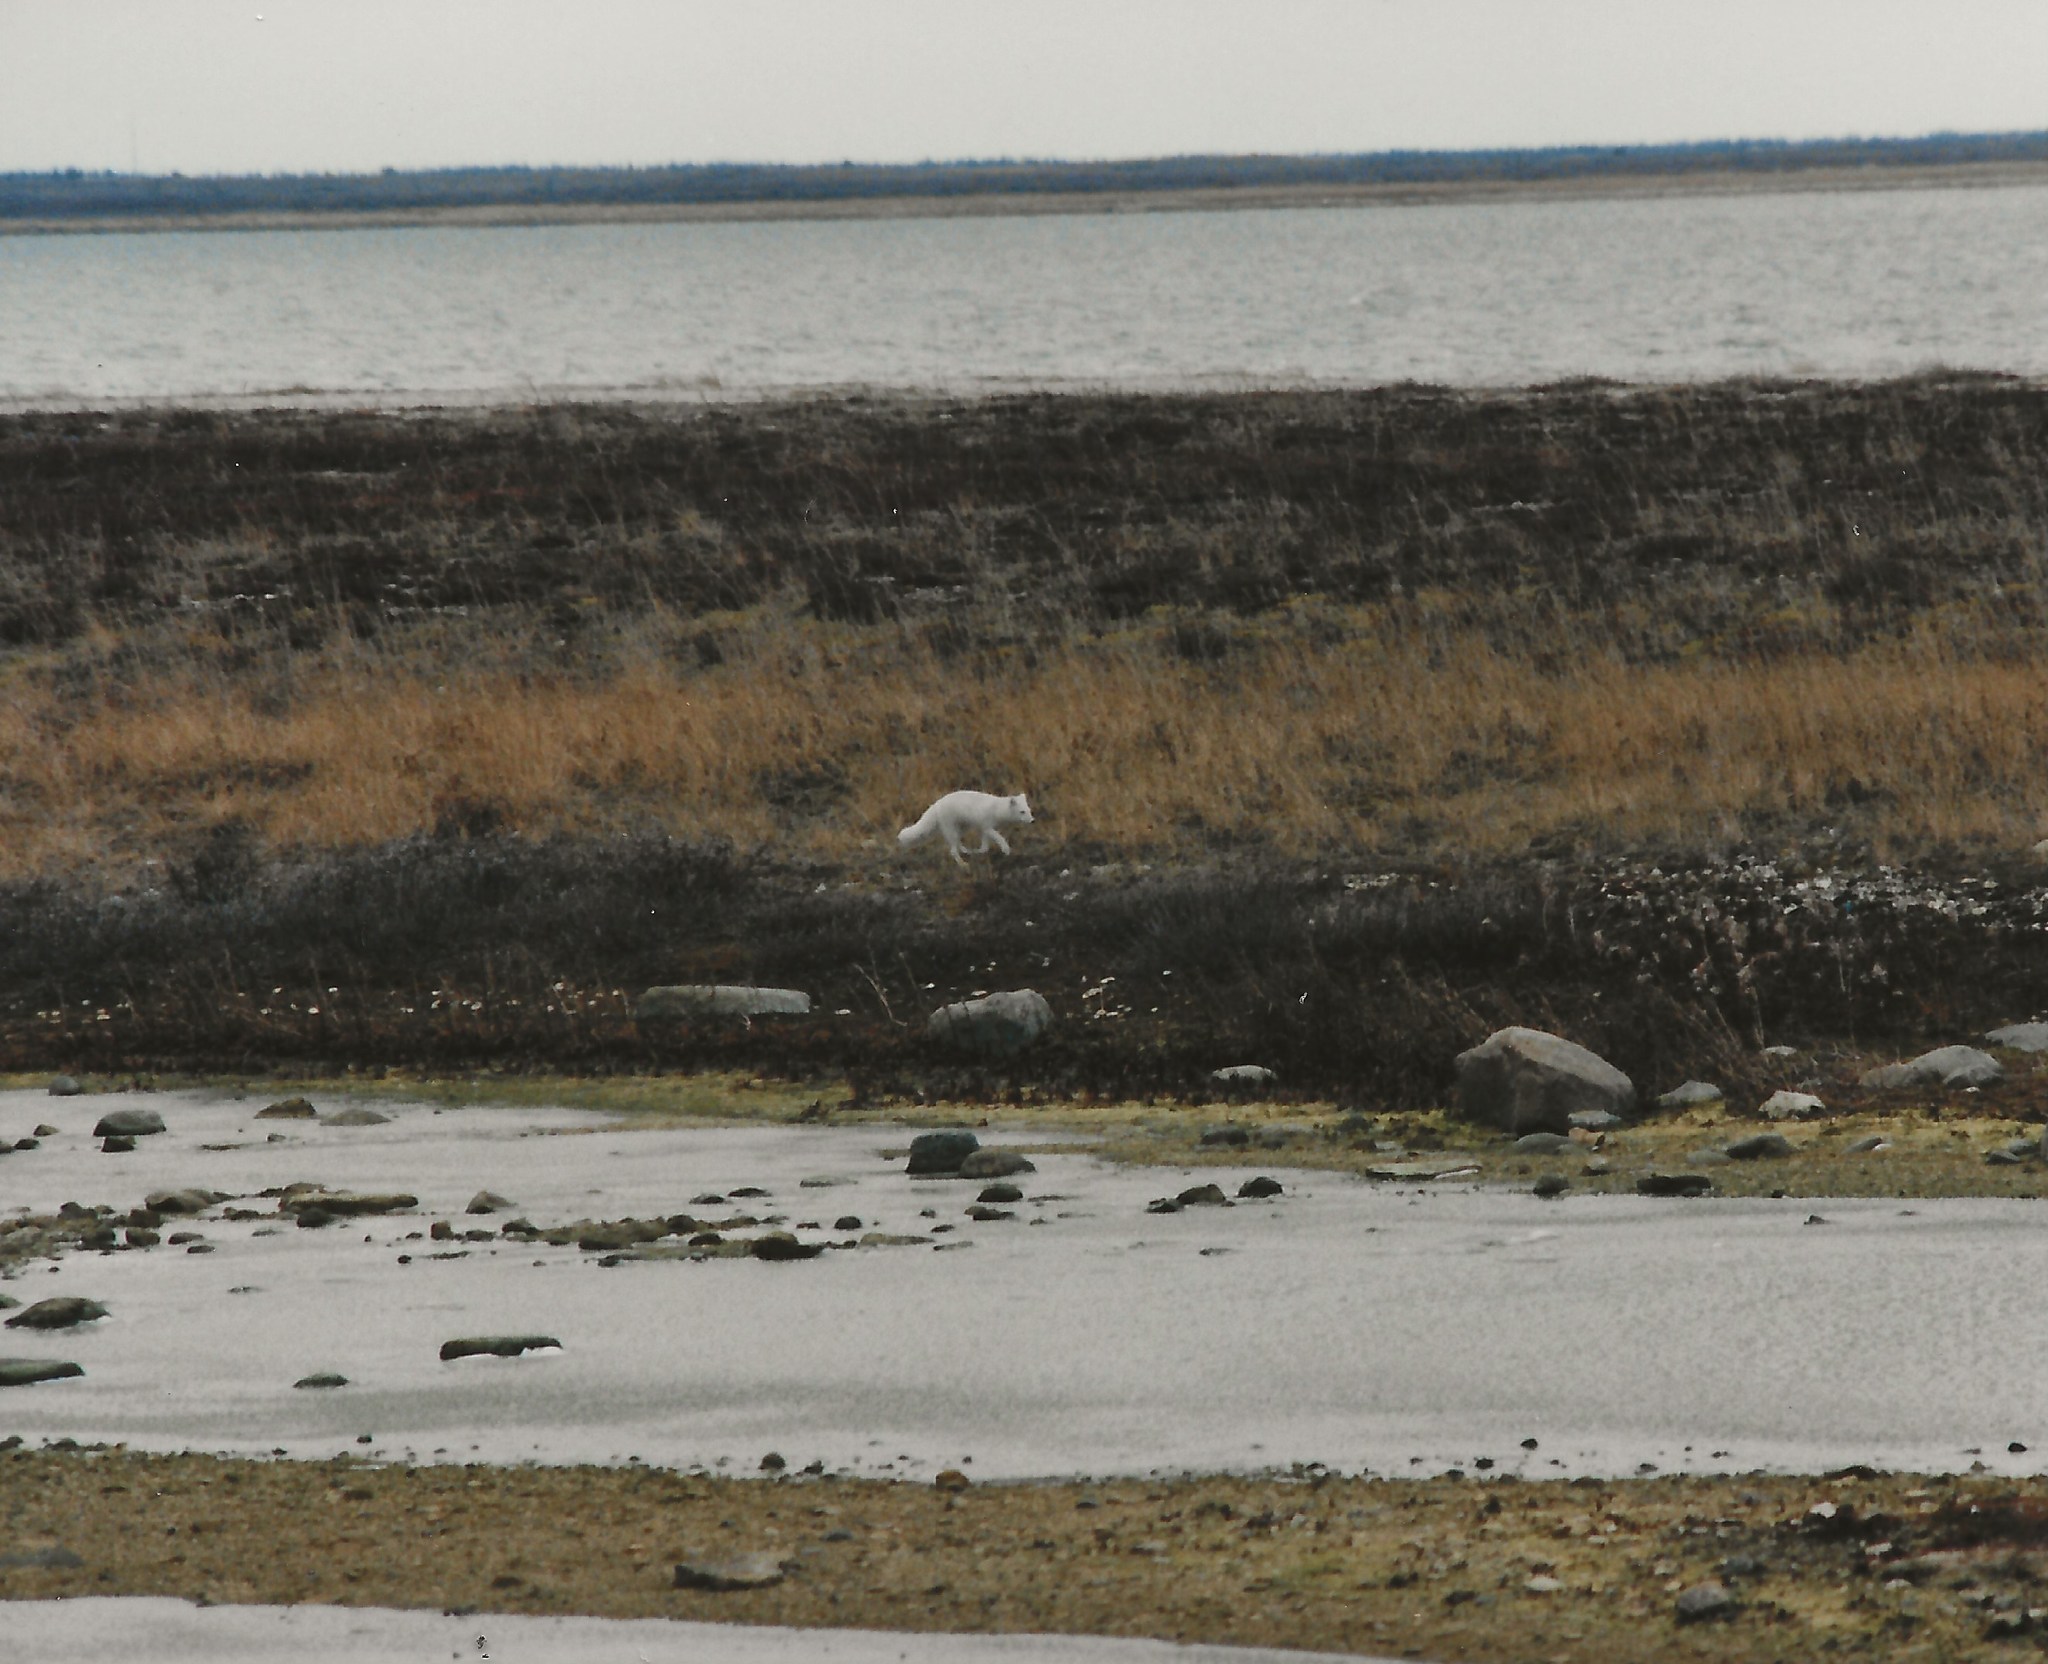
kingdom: Animalia
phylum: Chordata
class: Mammalia
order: Carnivora
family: Canidae
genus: Vulpes
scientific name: Vulpes lagopus
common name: Arctic fox
